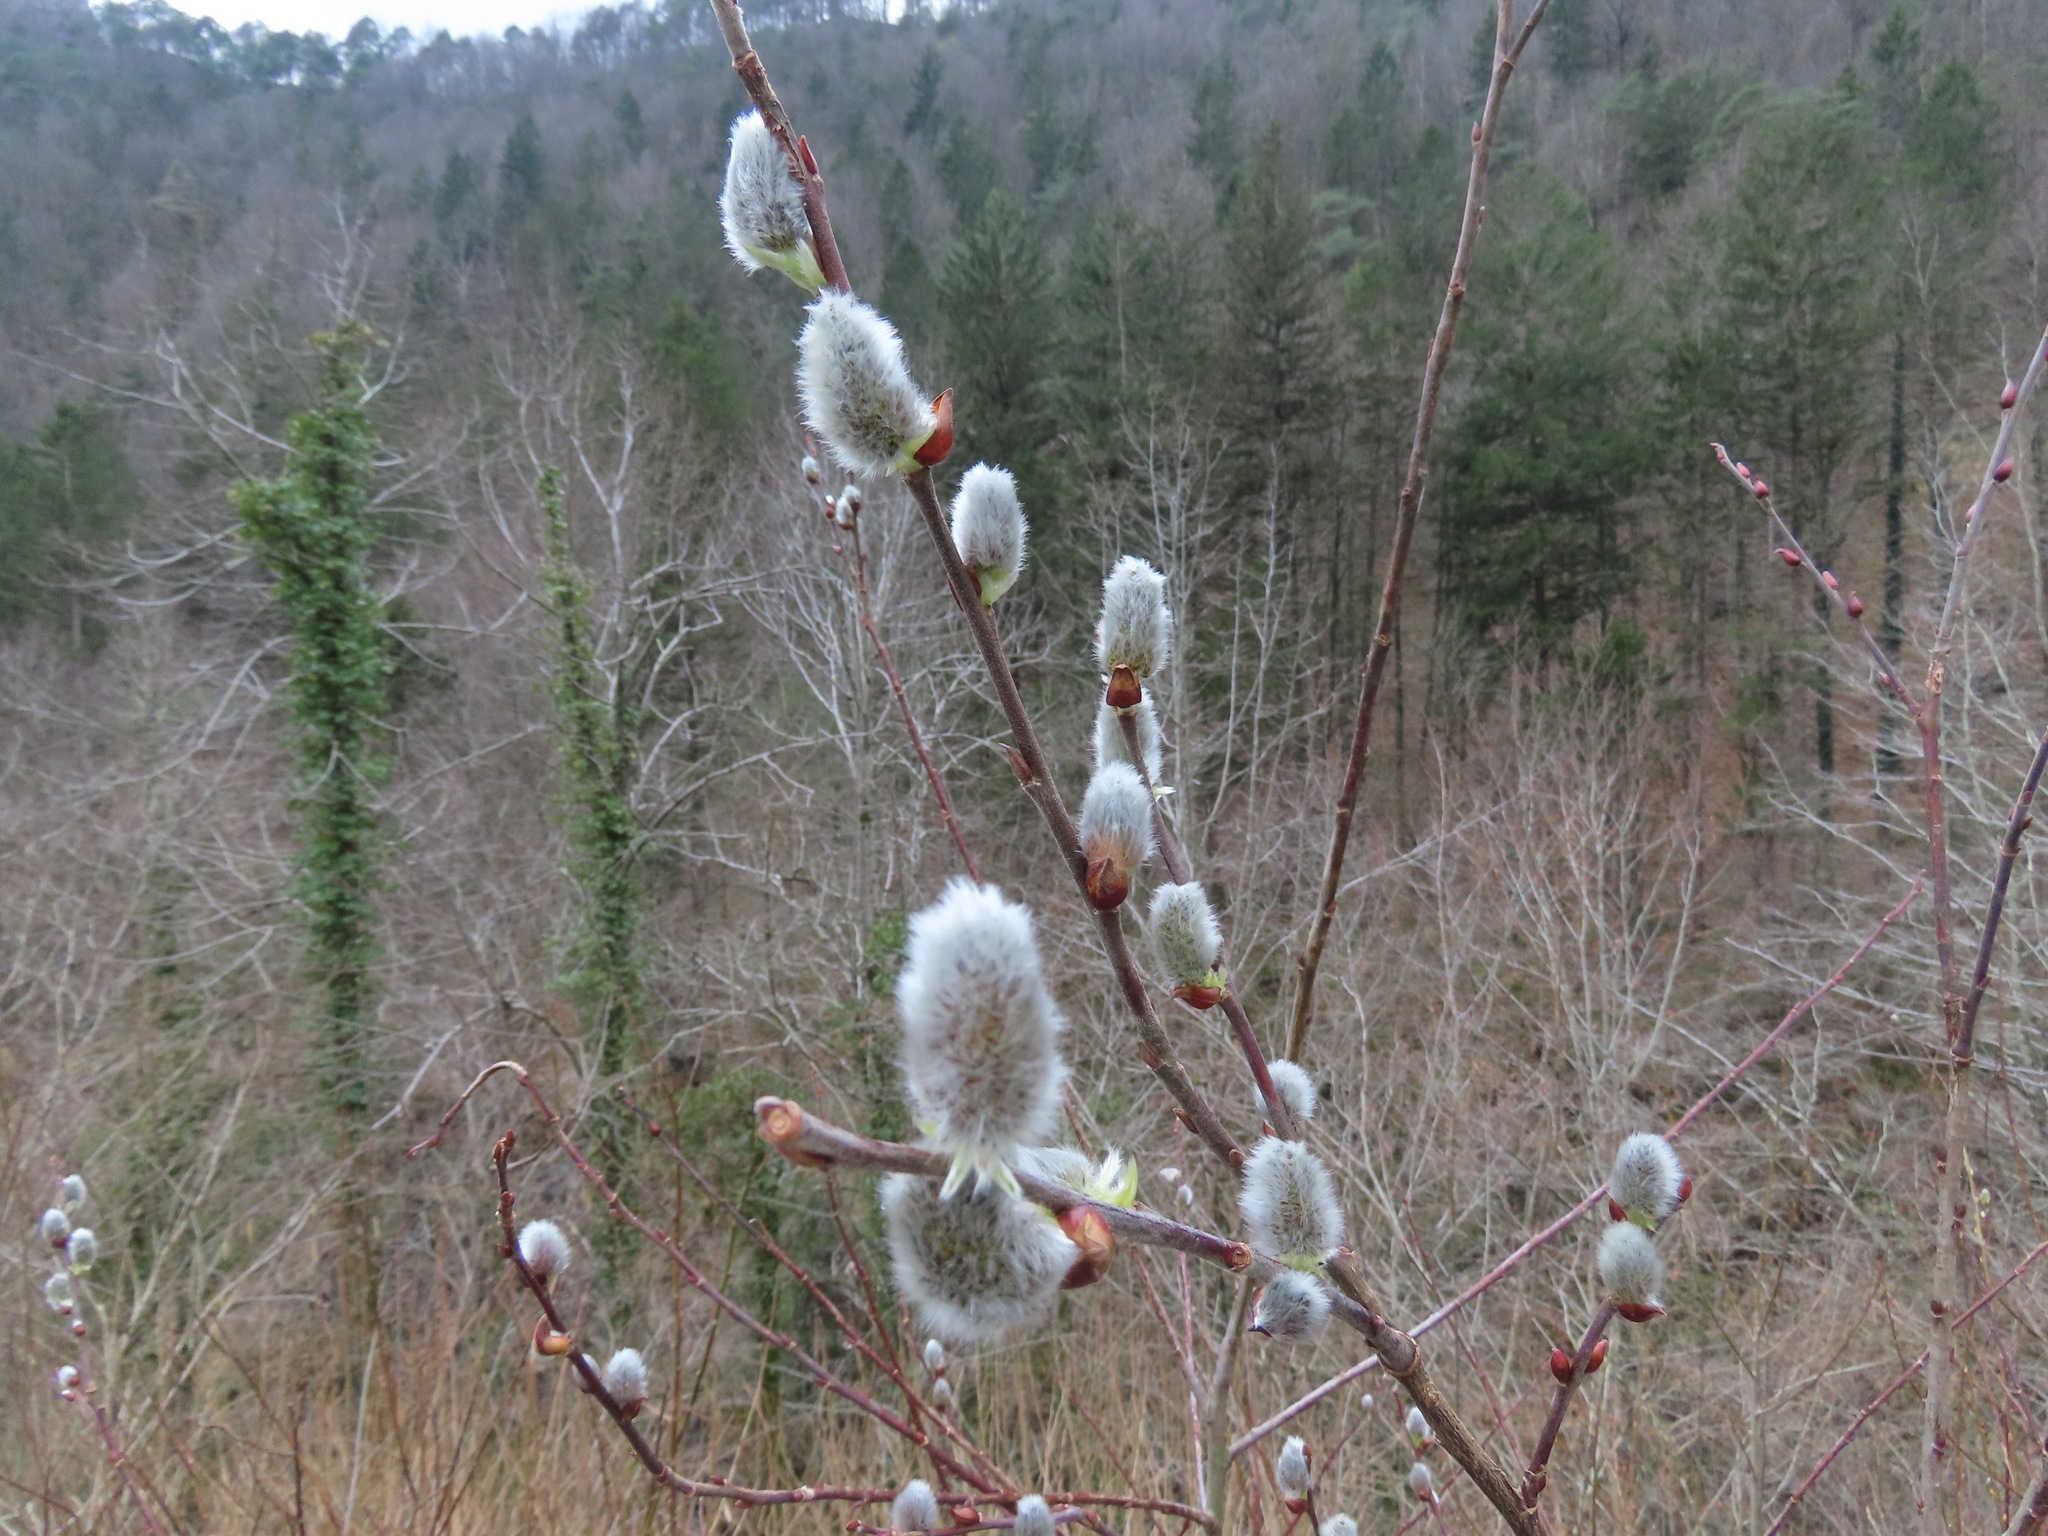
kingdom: Plantae
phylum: Tracheophyta
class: Magnoliopsida
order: Malpighiales
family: Salicaceae
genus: Salix
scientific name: Salix caprea
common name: Goat willow
